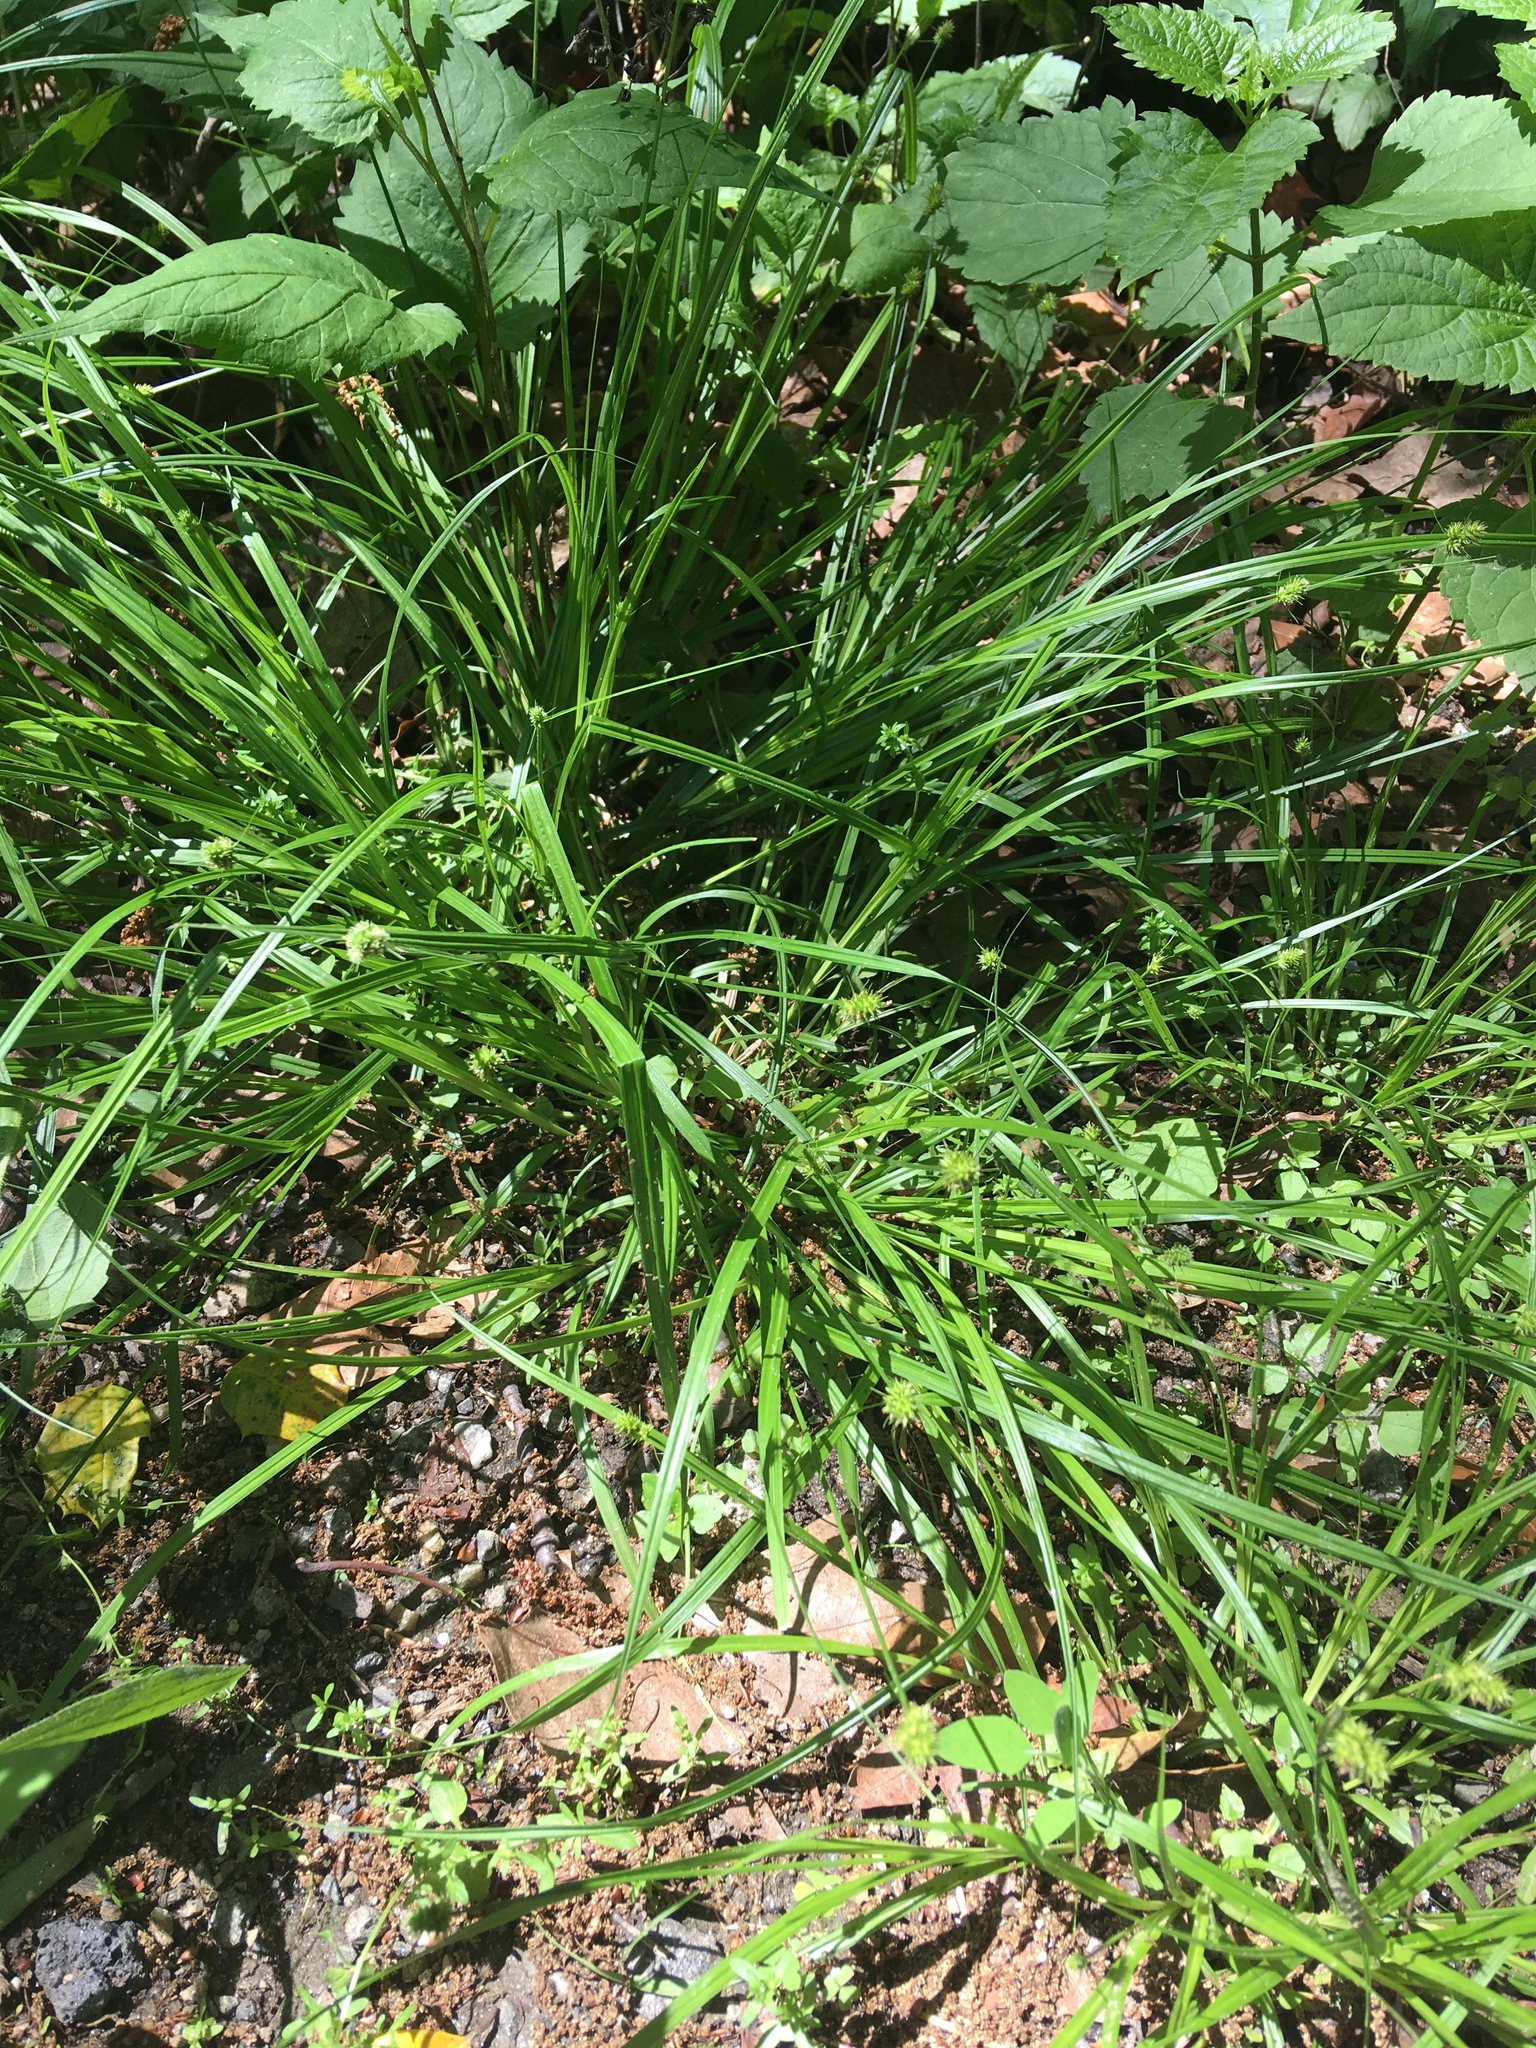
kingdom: Plantae
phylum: Tracheophyta
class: Liliopsida
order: Poales
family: Cyperaceae
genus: Carex
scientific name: Carex cephalophora
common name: Oval-headed sedge
